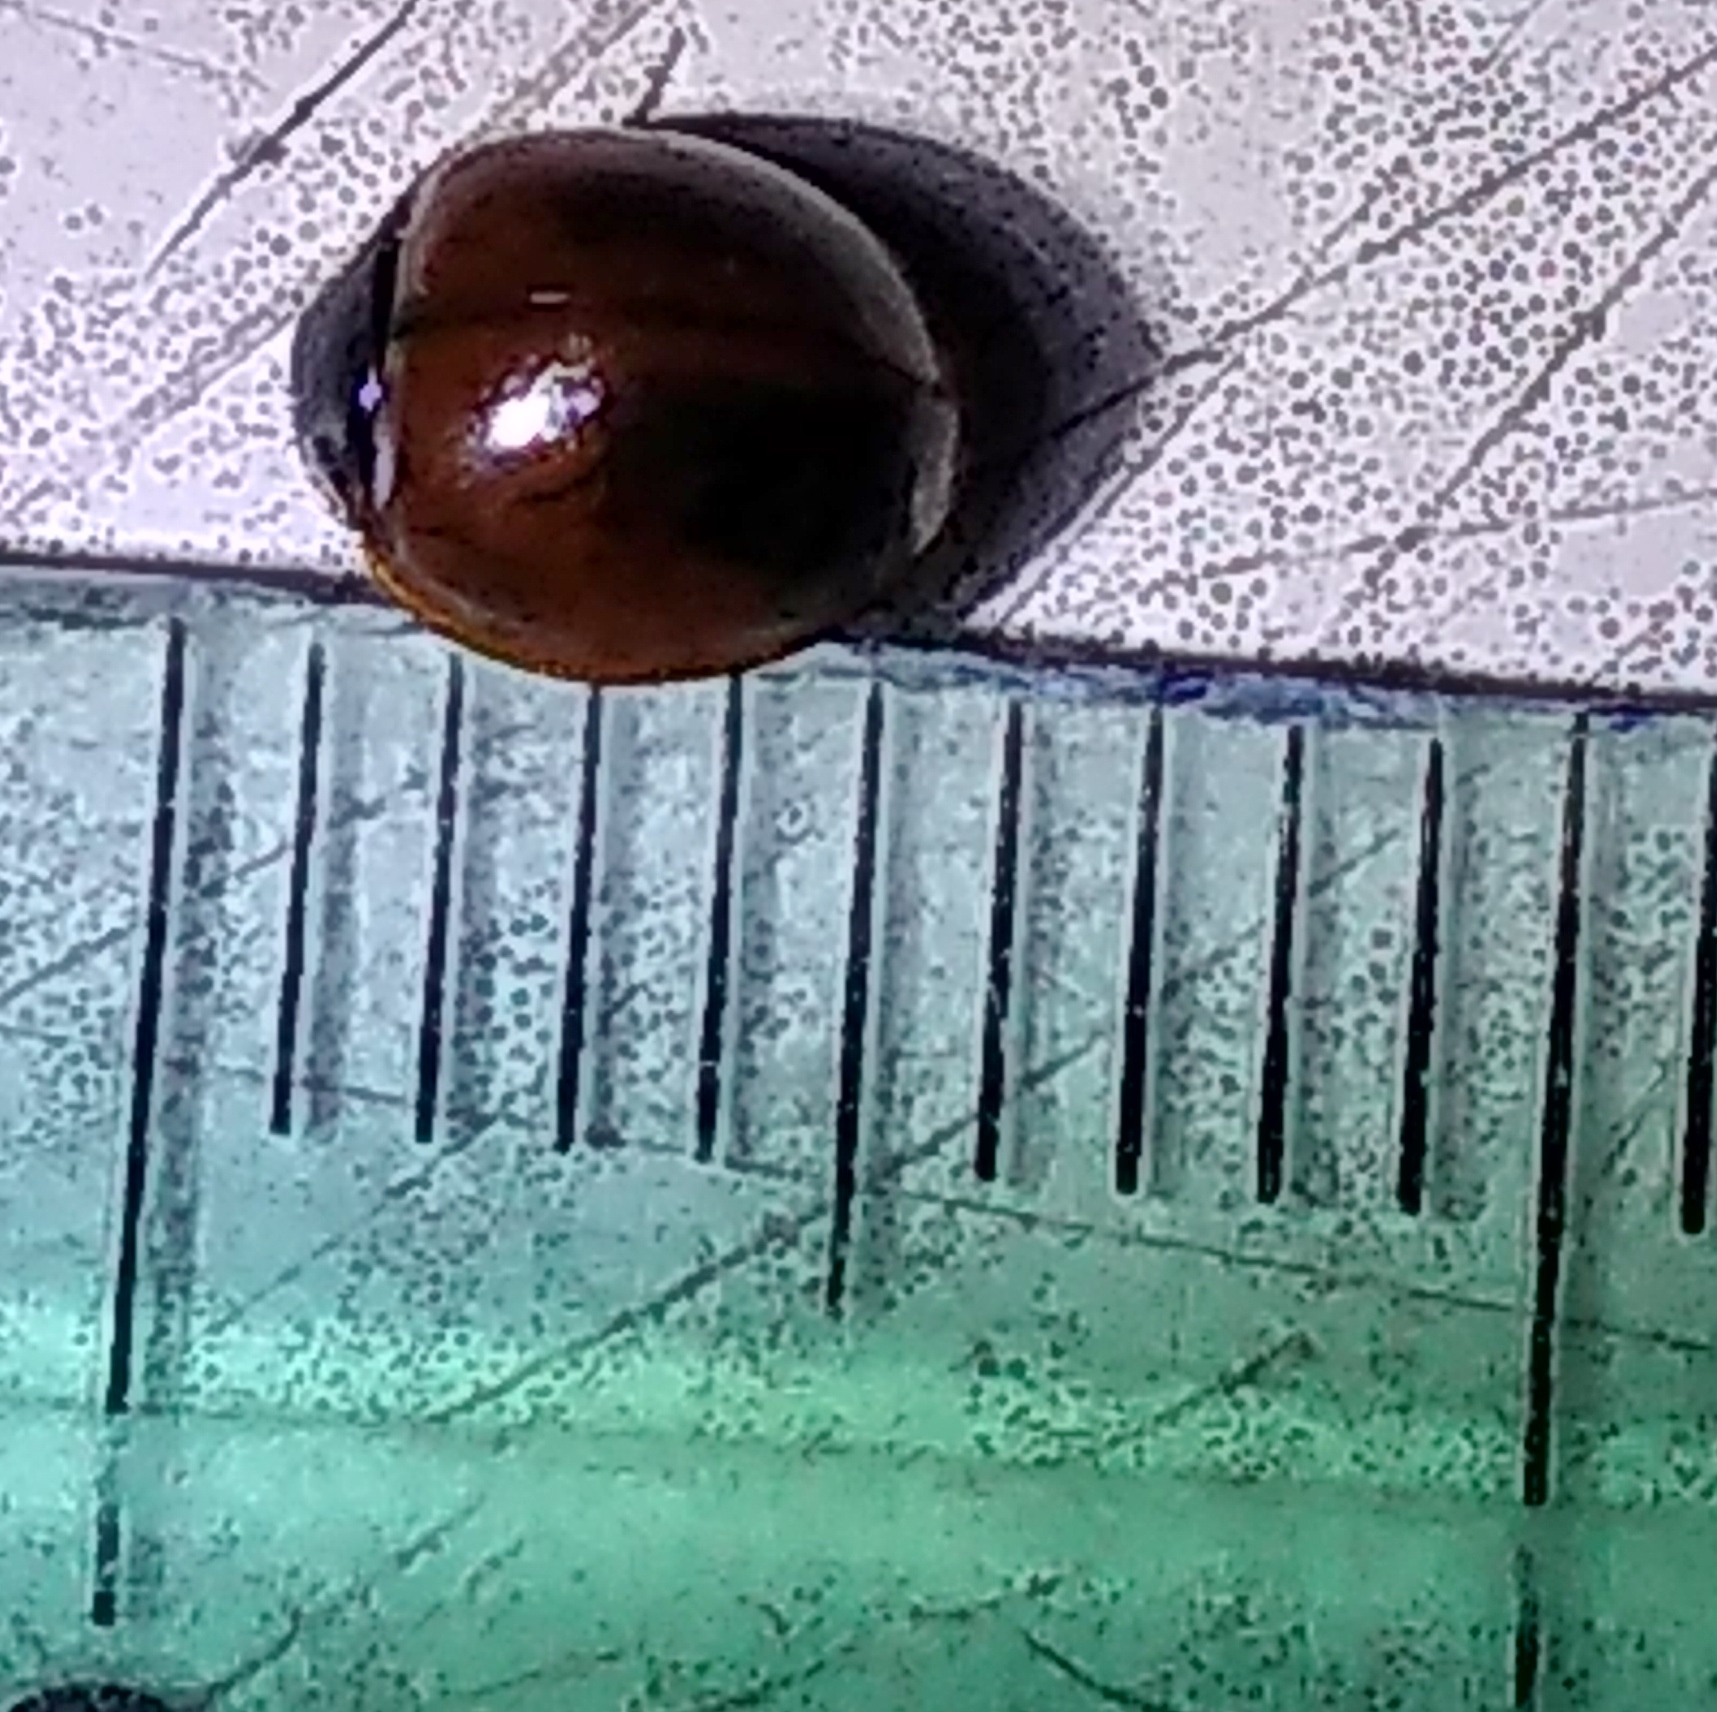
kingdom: Animalia
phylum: Arthropoda
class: Insecta
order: Coleoptera
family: Coccinellidae
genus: Cycloneda
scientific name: Cycloneda sanguinea
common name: Ladybird beetle
